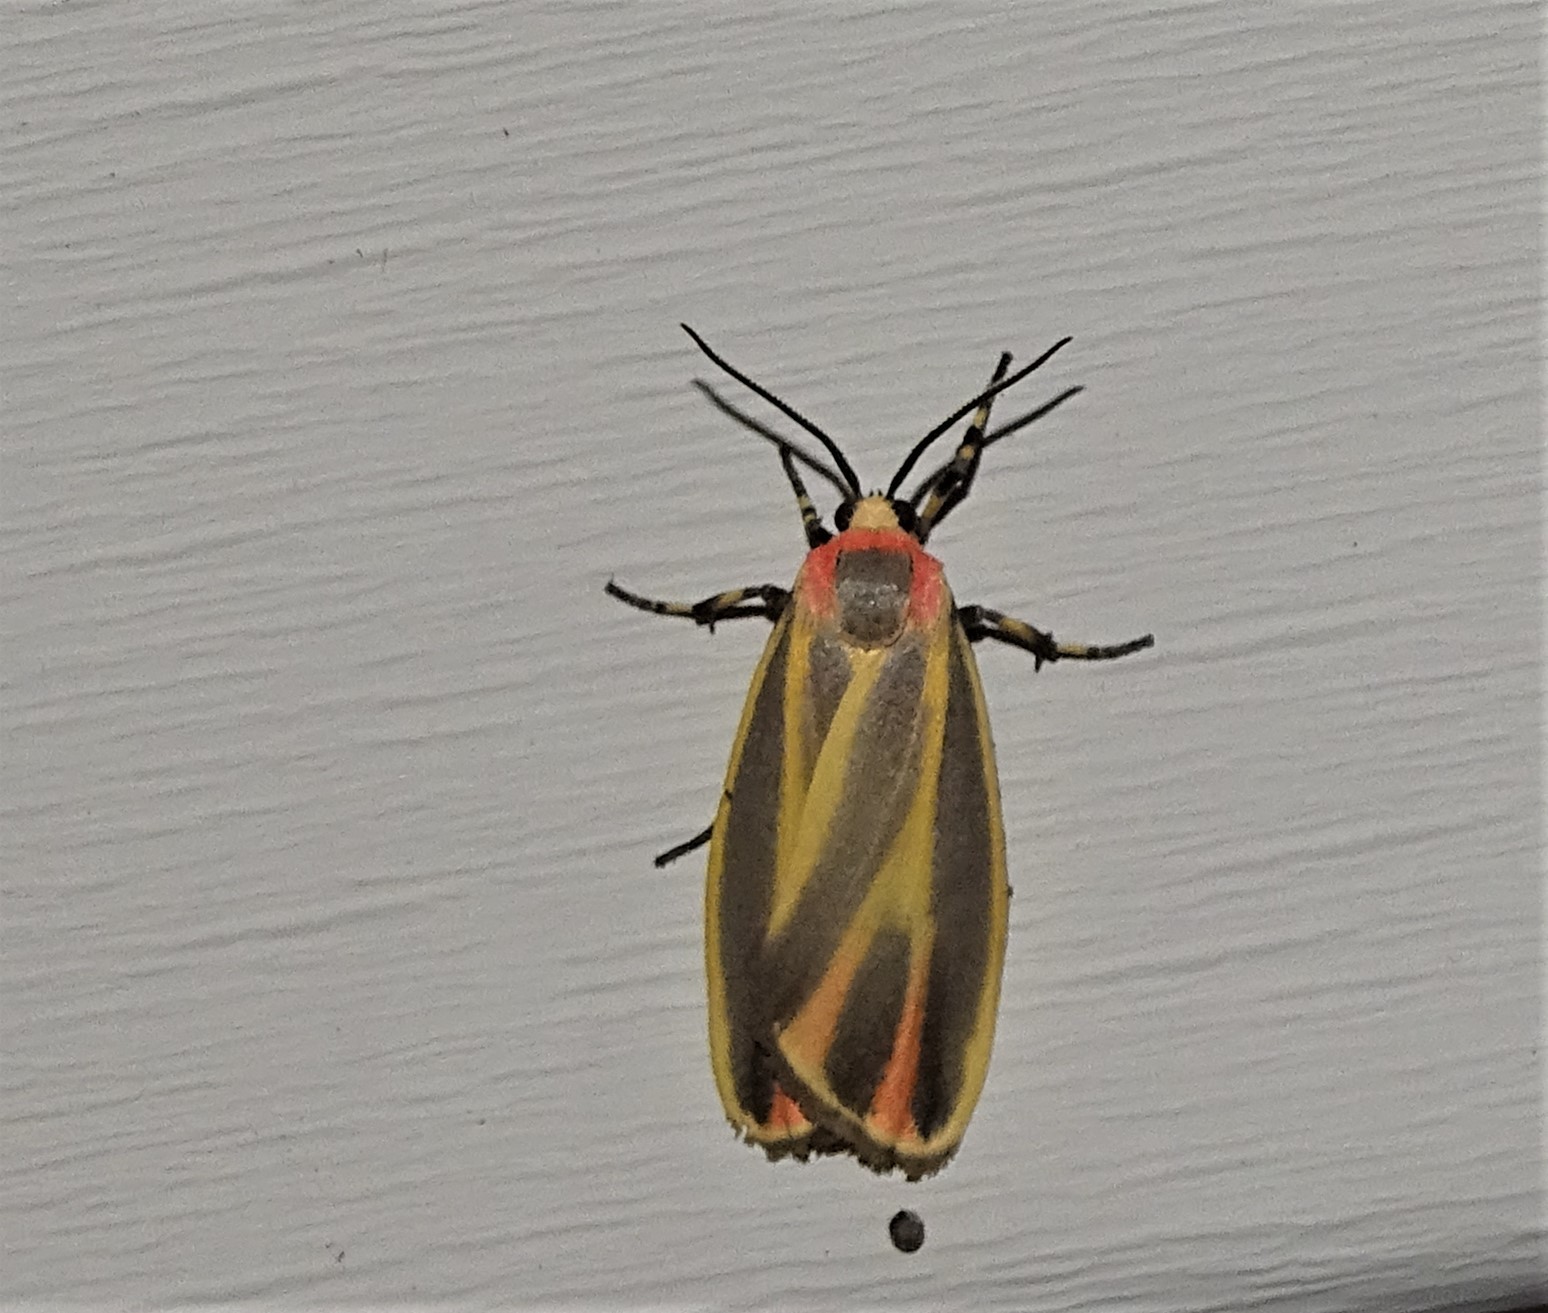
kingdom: Animalia
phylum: Arthropoda
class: Insecta
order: Lepidoptera
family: Erebidae
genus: Hypoprepia
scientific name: Hypoprepia fucosa
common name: Painted lichen moth
